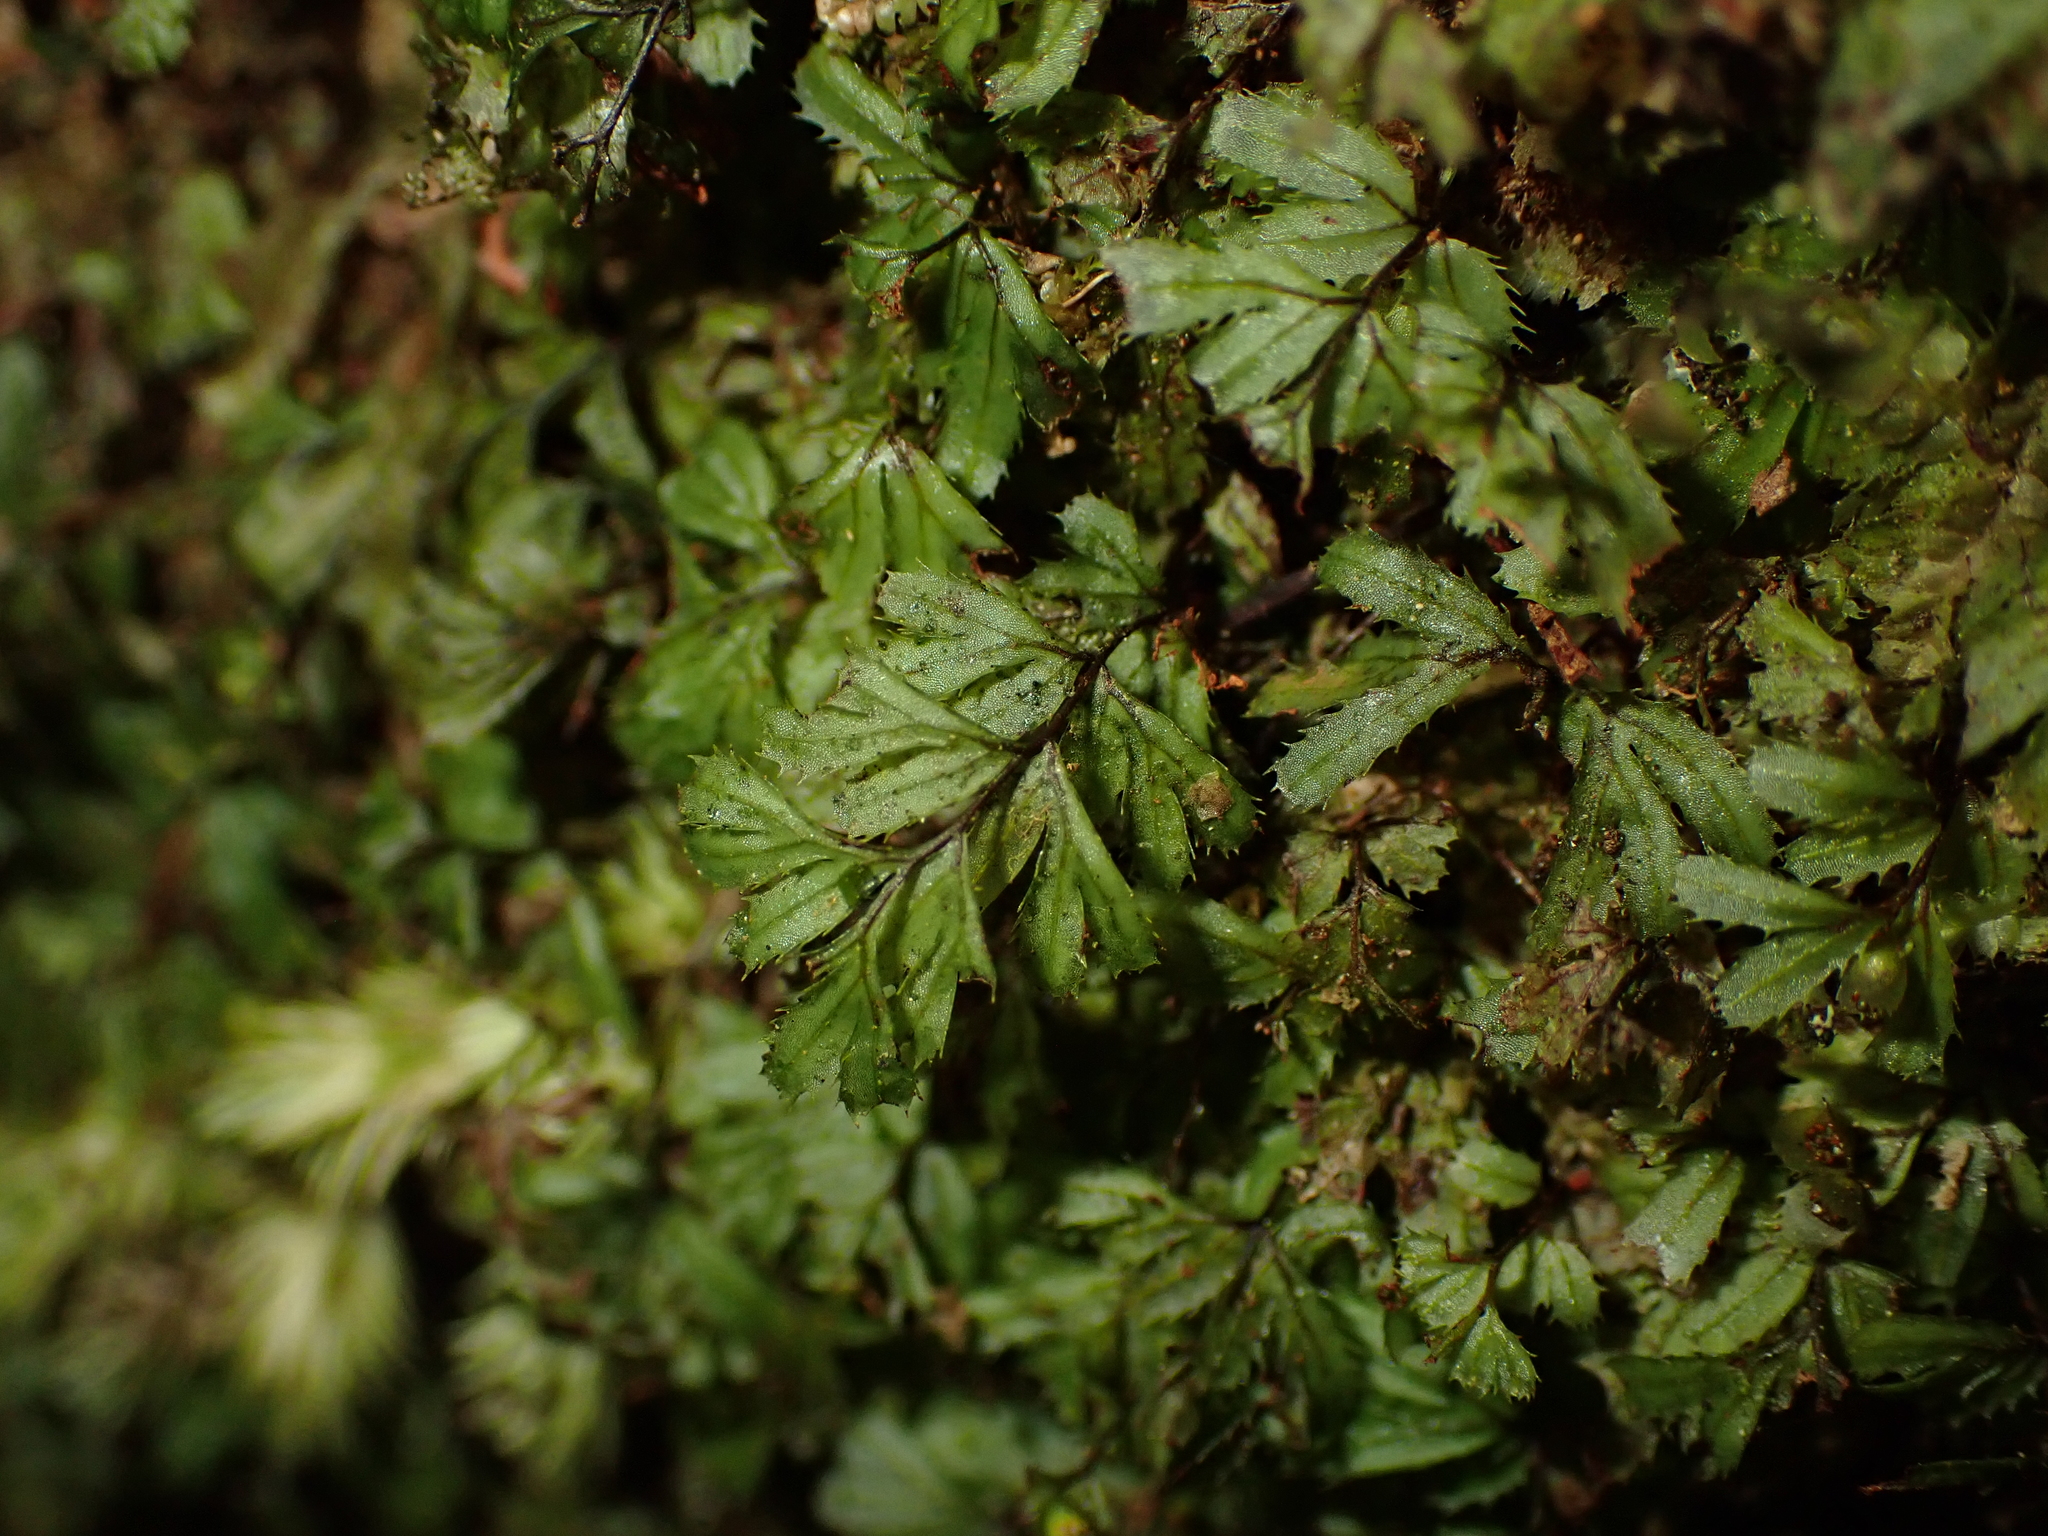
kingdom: Plantae
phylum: Tracheophyta
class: Polypodiopsida
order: Hymenophyllales
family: Hymenophyllaceae
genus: Hymenophyllum
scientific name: Hymenophyllum revolutum
